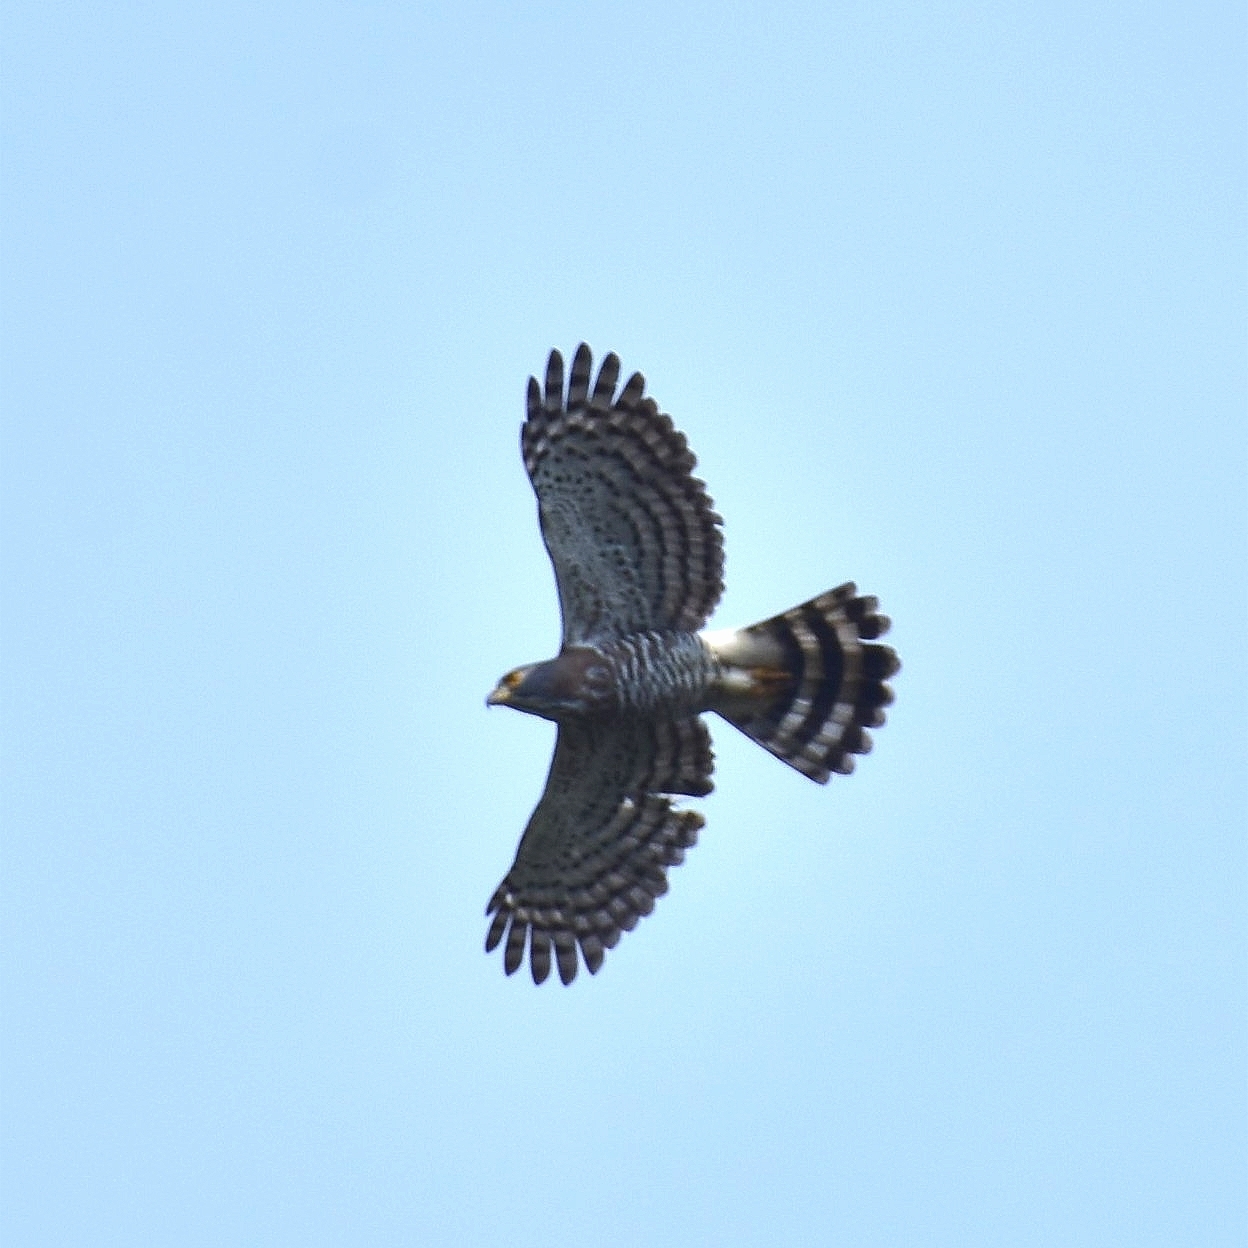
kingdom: Animalia
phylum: Chordata
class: Aves
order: Accipitriformes
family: Accipitridae
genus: Accipiter
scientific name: Accipiter trivirgatus
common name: Crested goshawk
